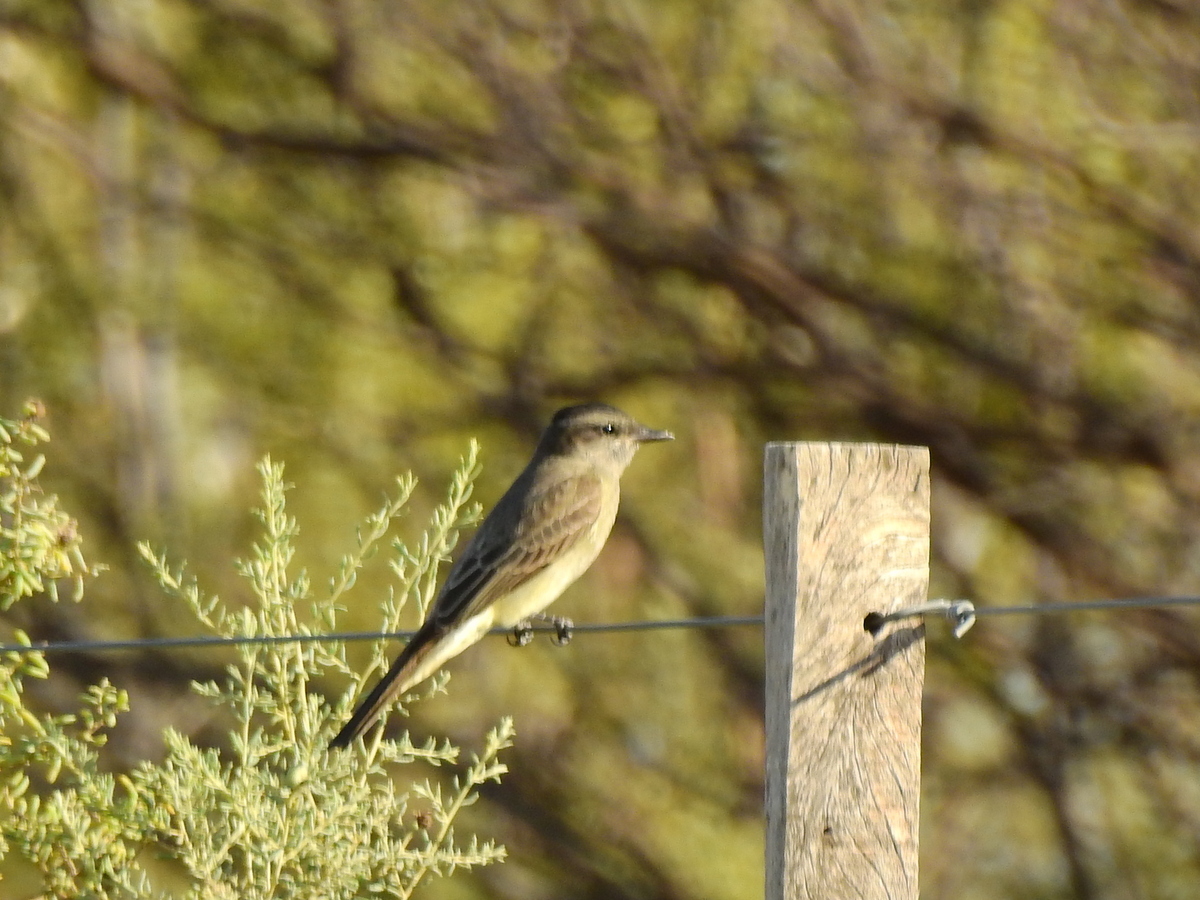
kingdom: Animalia
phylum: Chordata
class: Aves
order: Passeriformes
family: Tyrannidae
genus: Empidonomus
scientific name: Empidonomus aurantioatrocristatus
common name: Crowned slaty flycatcher
